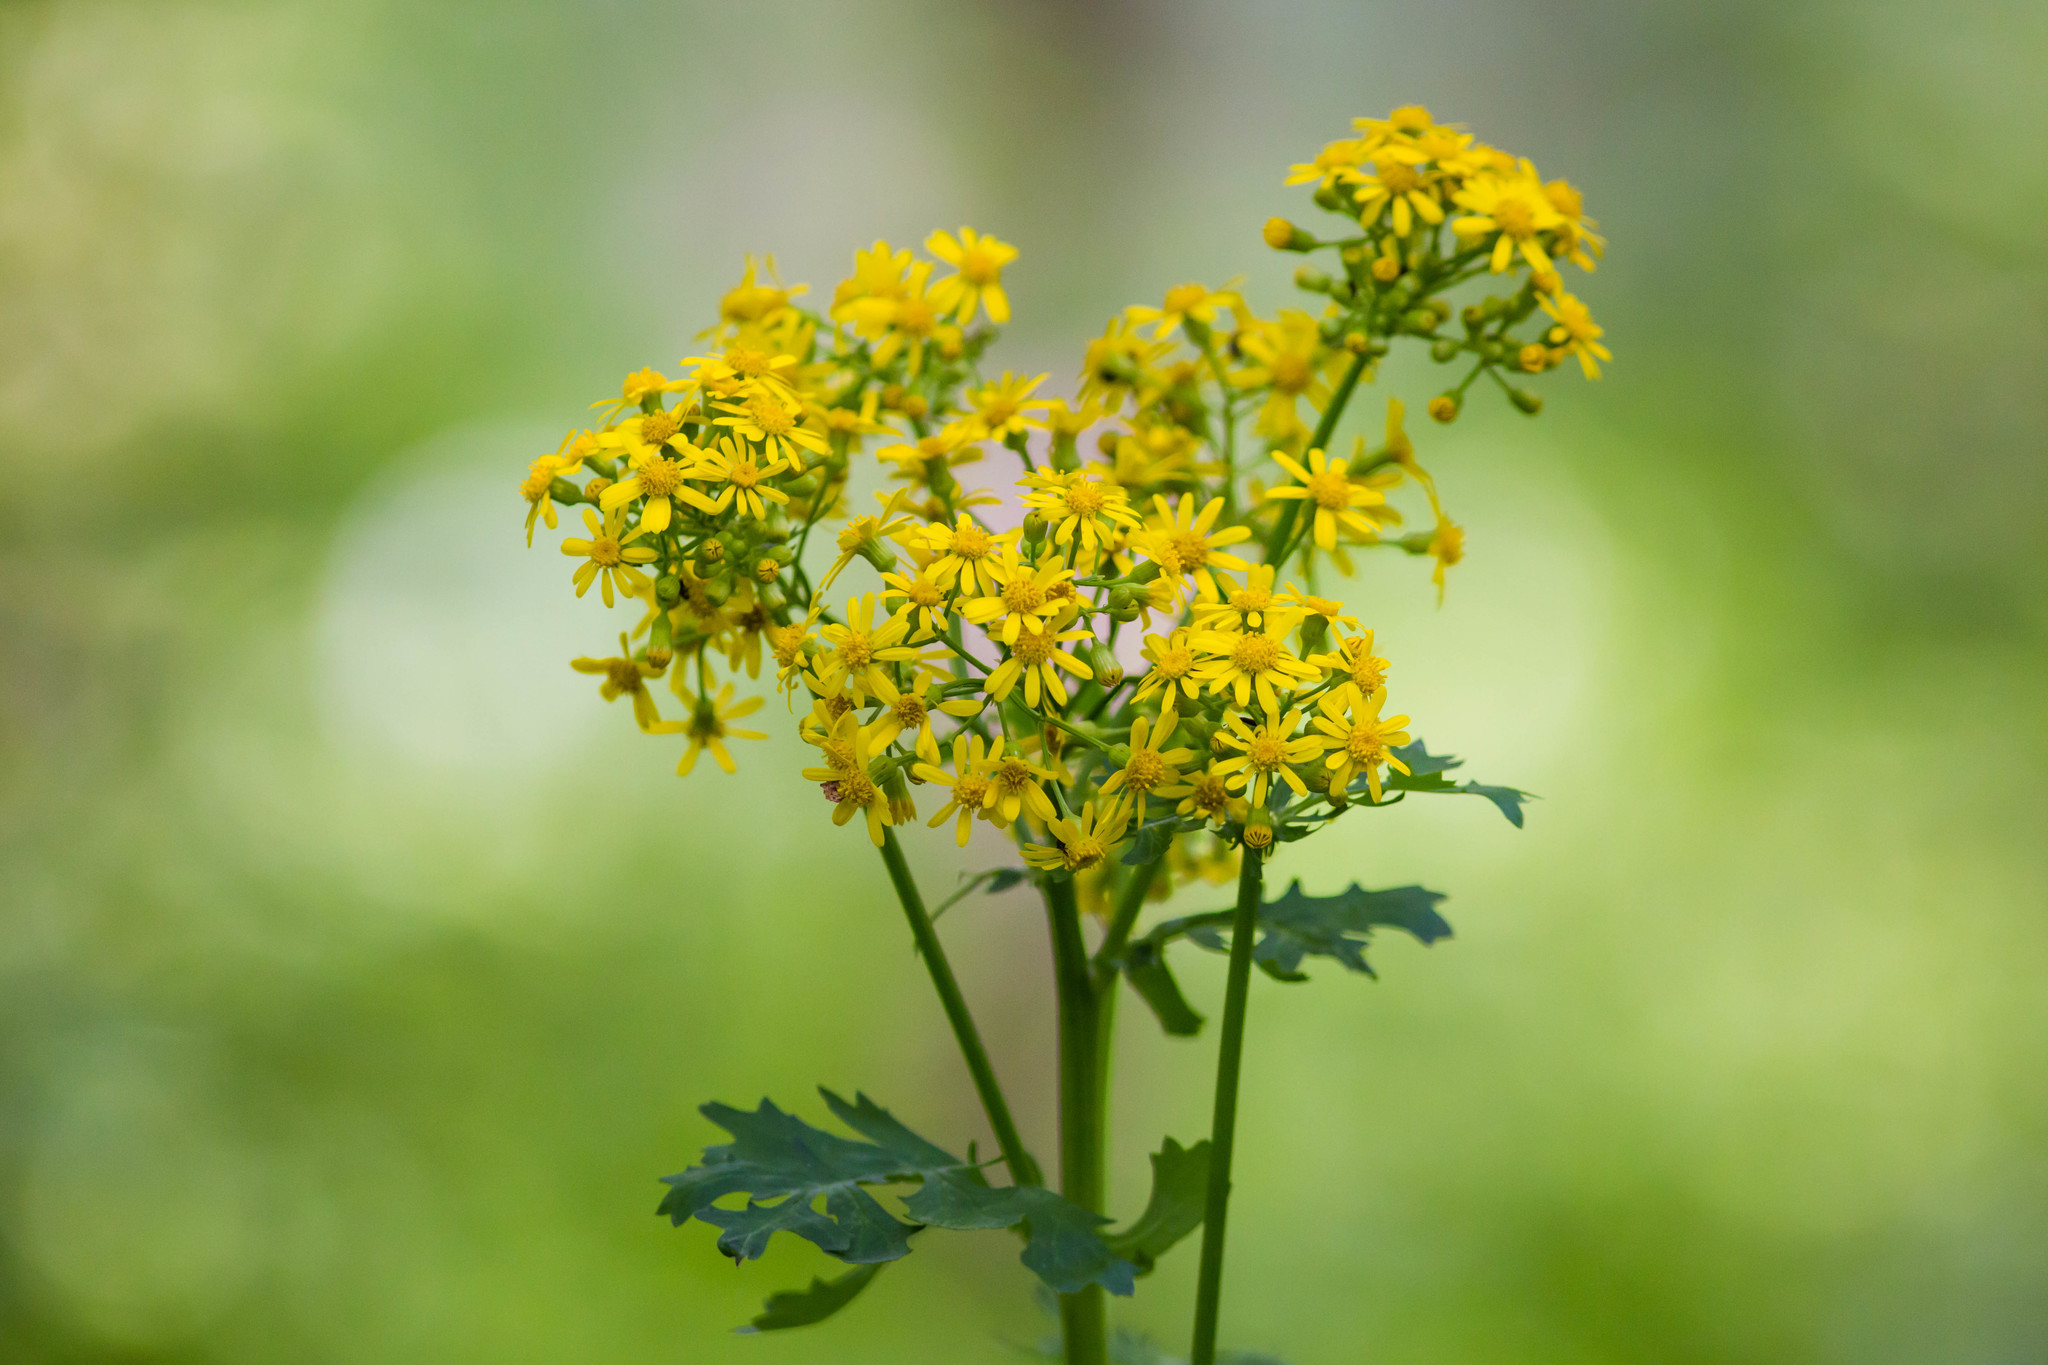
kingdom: Plantae
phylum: Tracheophyta
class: Magnoliopsida
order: Asterales
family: Asteraceae
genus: Packera
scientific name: Packera glabella
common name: Butterweed
